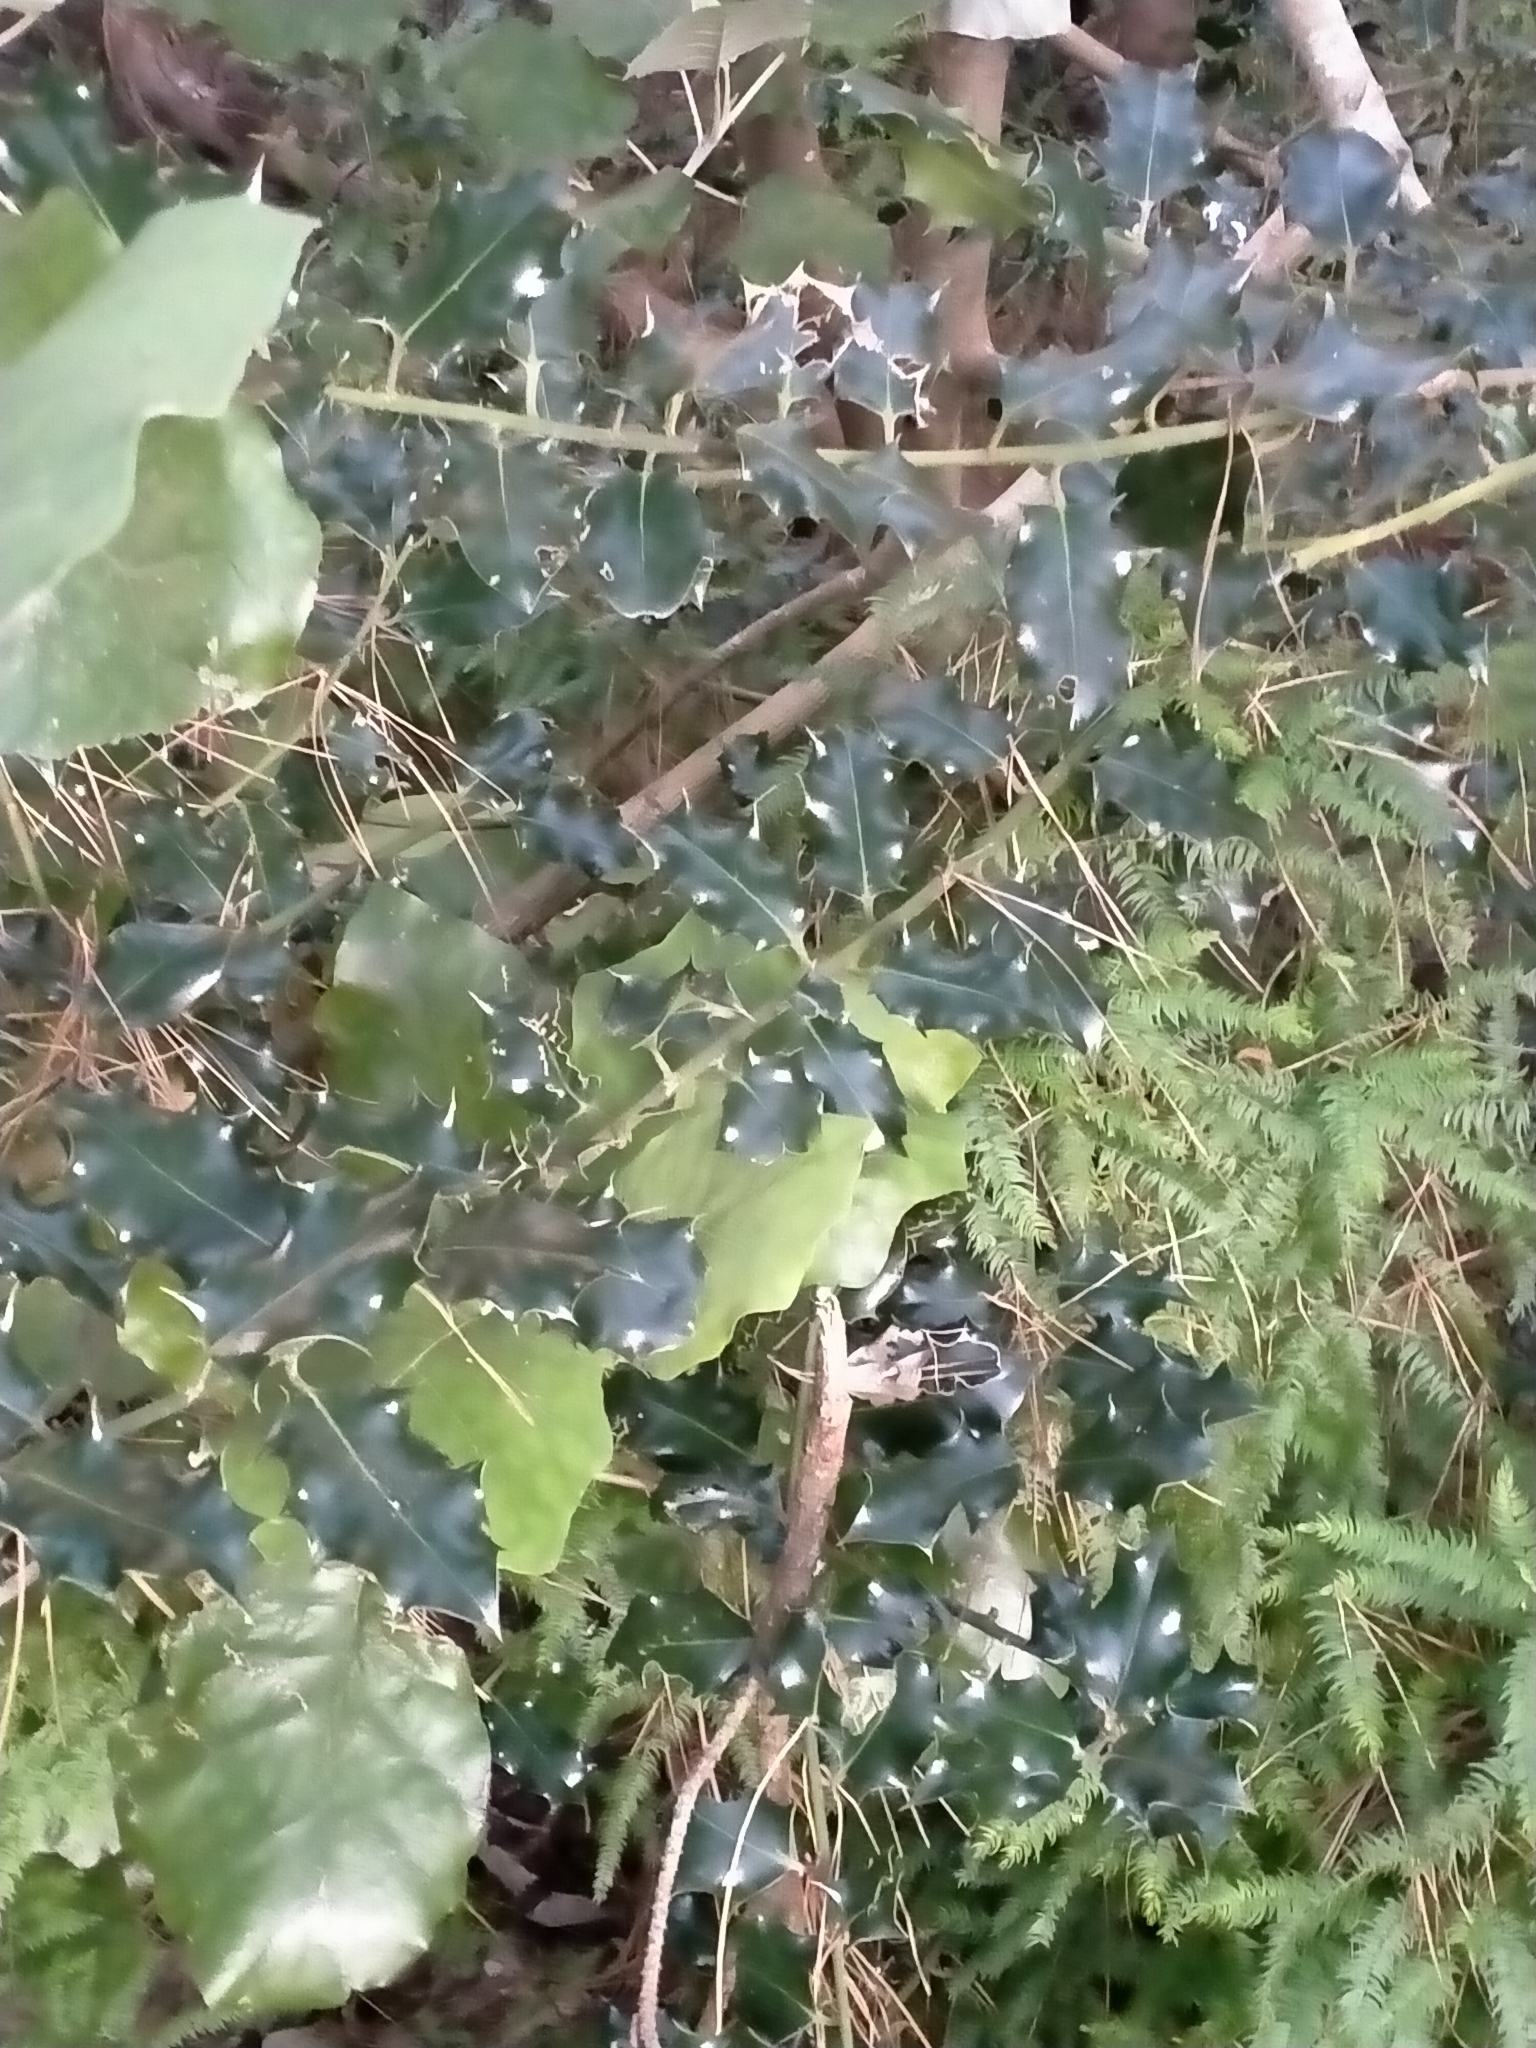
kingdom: Plantae
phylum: Tracheophyta
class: Magnoliopsida
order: Aquifoliales
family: Aquifoliaceae
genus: Ilex
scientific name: Ilex aquifolium
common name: English holly
